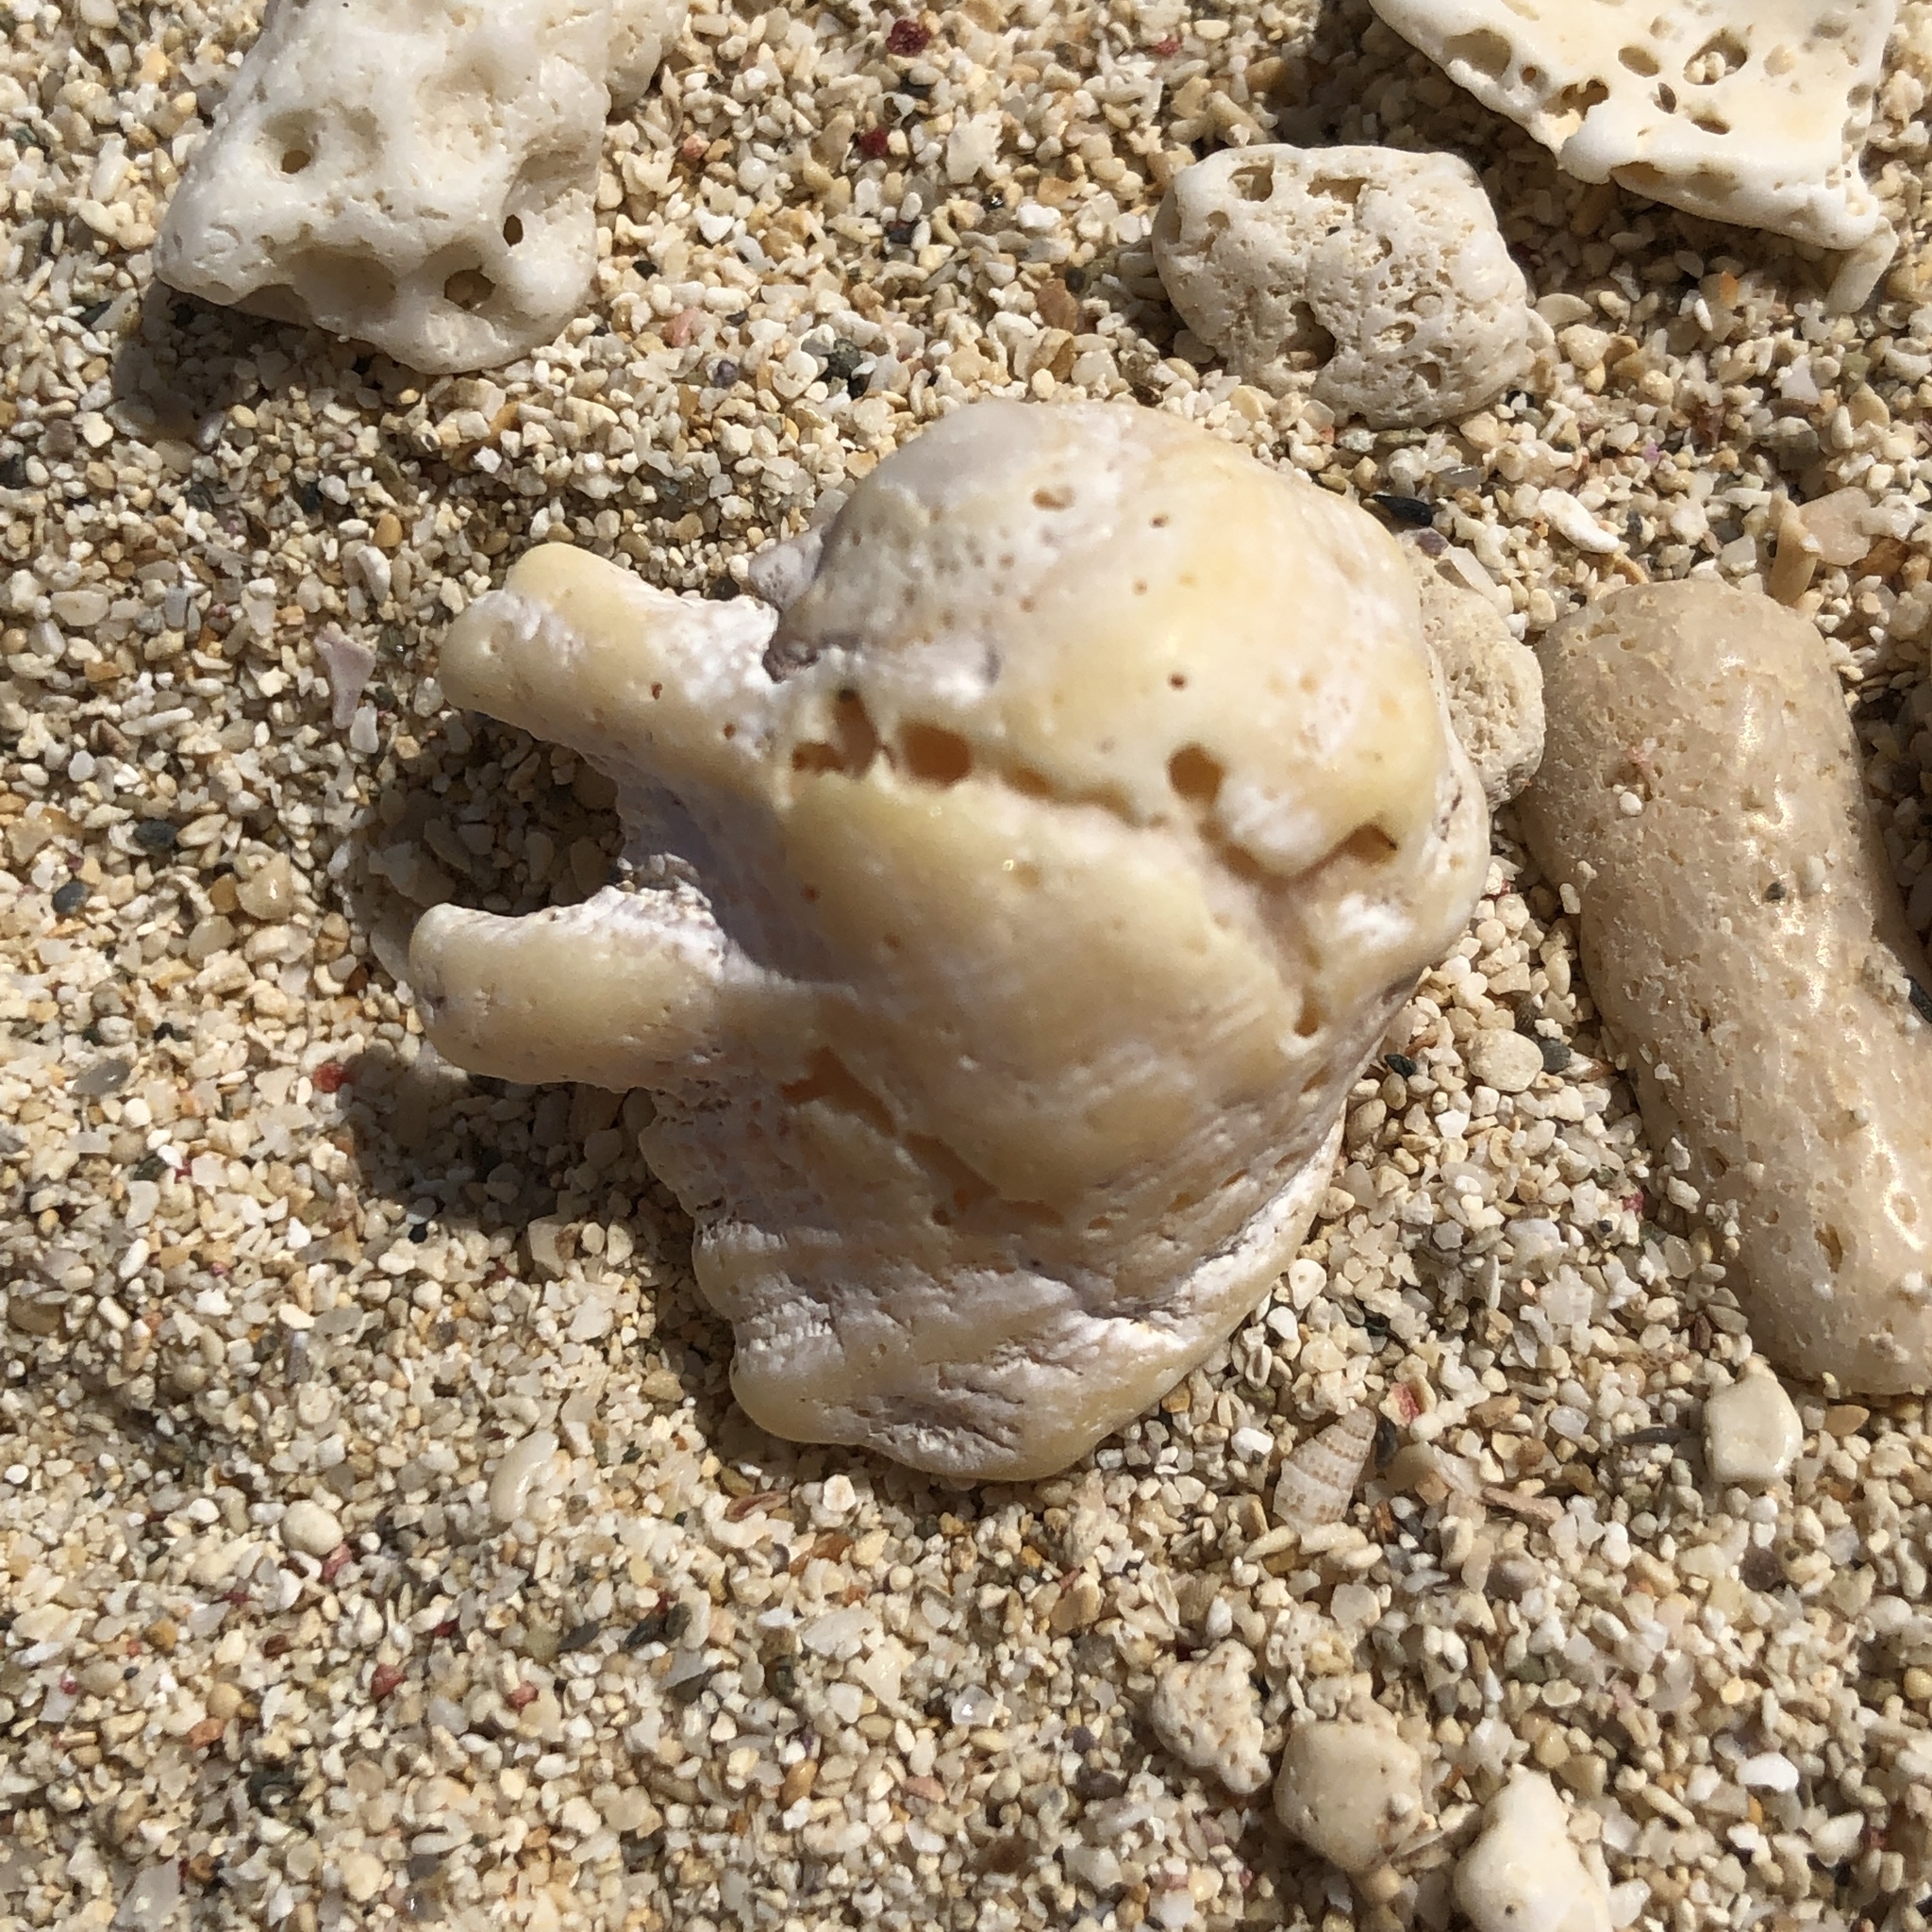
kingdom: Animalia
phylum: Mollusca
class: Gastropoda
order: Neogastropoda
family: Muricidae
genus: Drupina
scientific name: Drupina grossularia
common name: Digitate pacific drupe
